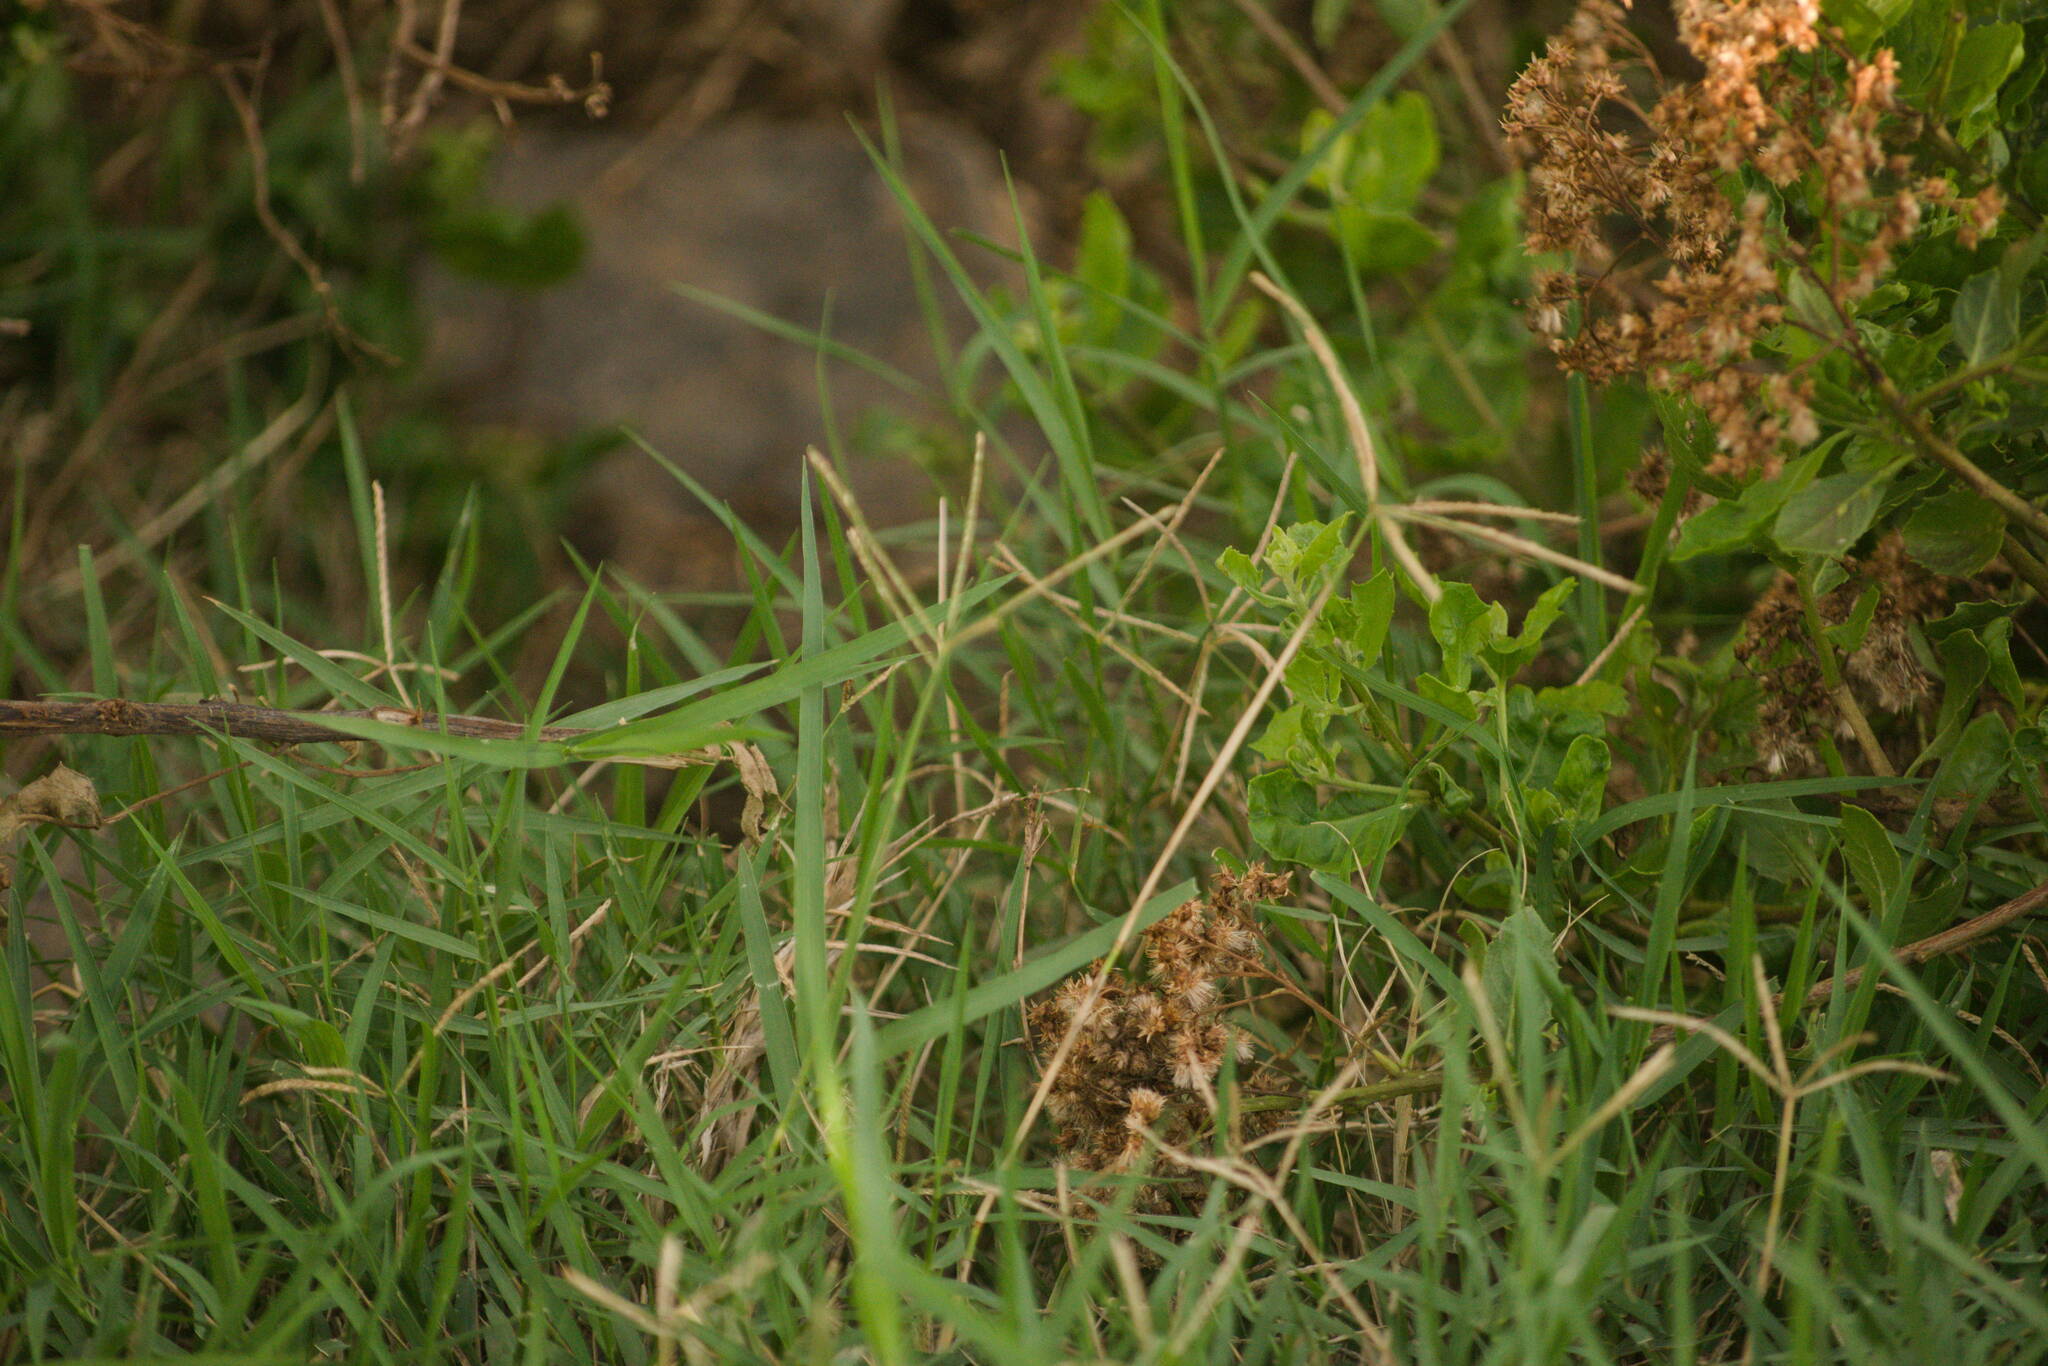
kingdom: Plantae
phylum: Tracheophyta
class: Liliopsida
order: Poales
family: Poaceae
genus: Cynodon
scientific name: Cynodon dactylon
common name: Bermuda grass
